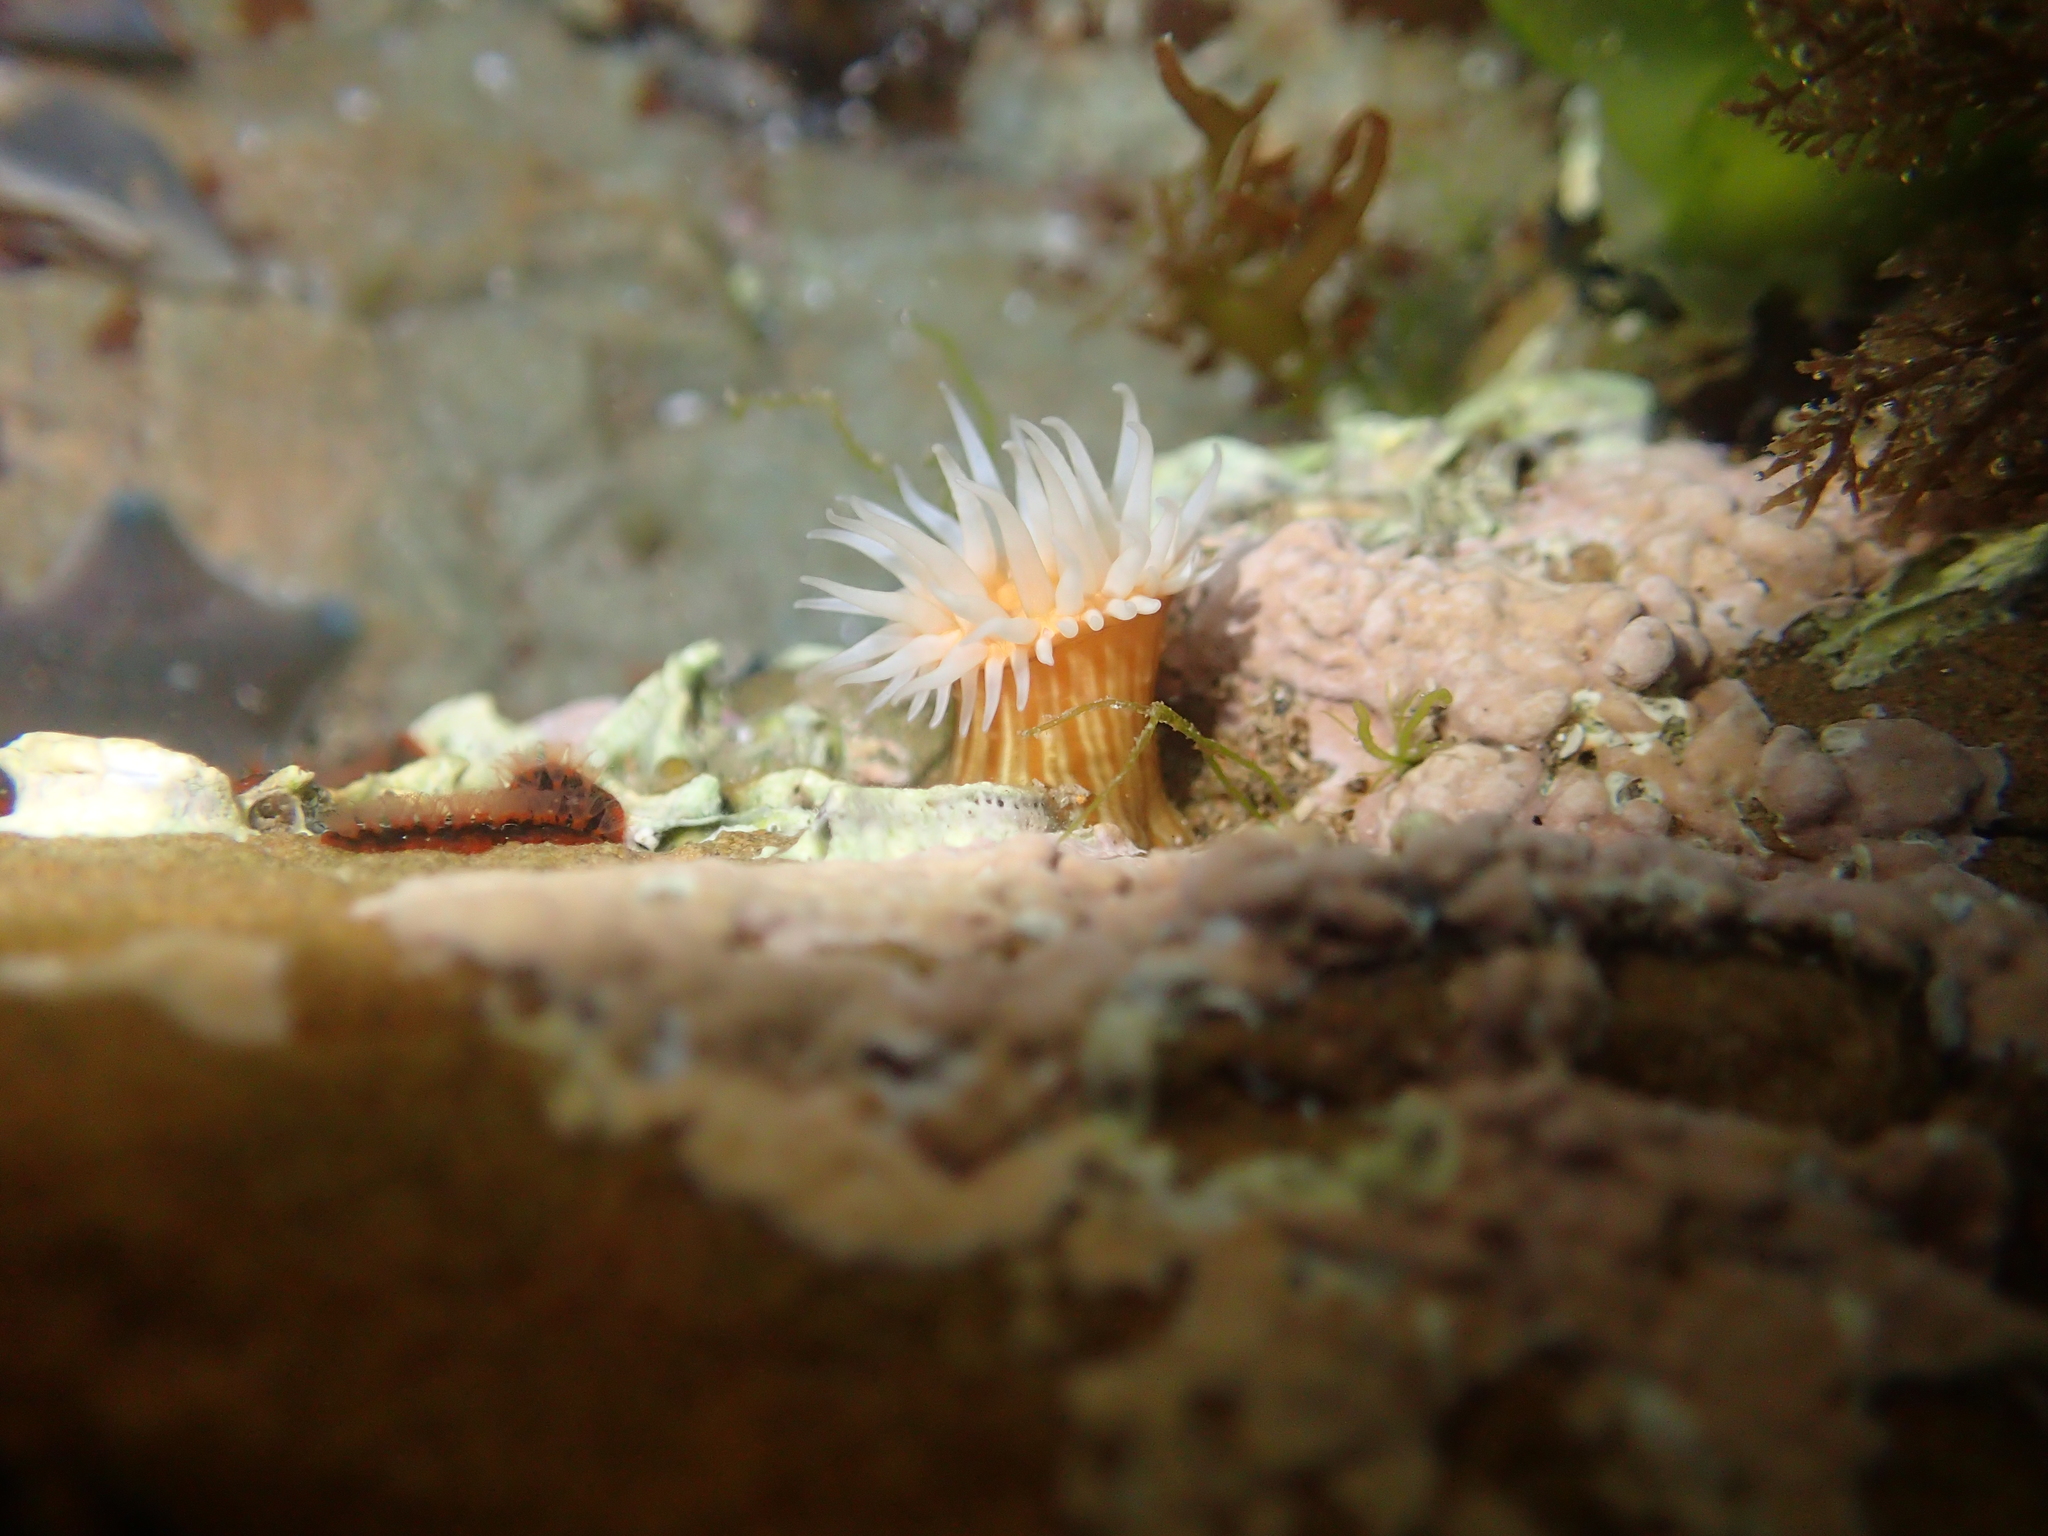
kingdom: Animalia
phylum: Cnidaria
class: Anthozoa
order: Actiniaria
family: Sagartiidae
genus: Anthothoe
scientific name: Anthothoe albocincta
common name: Orange striped anemone
